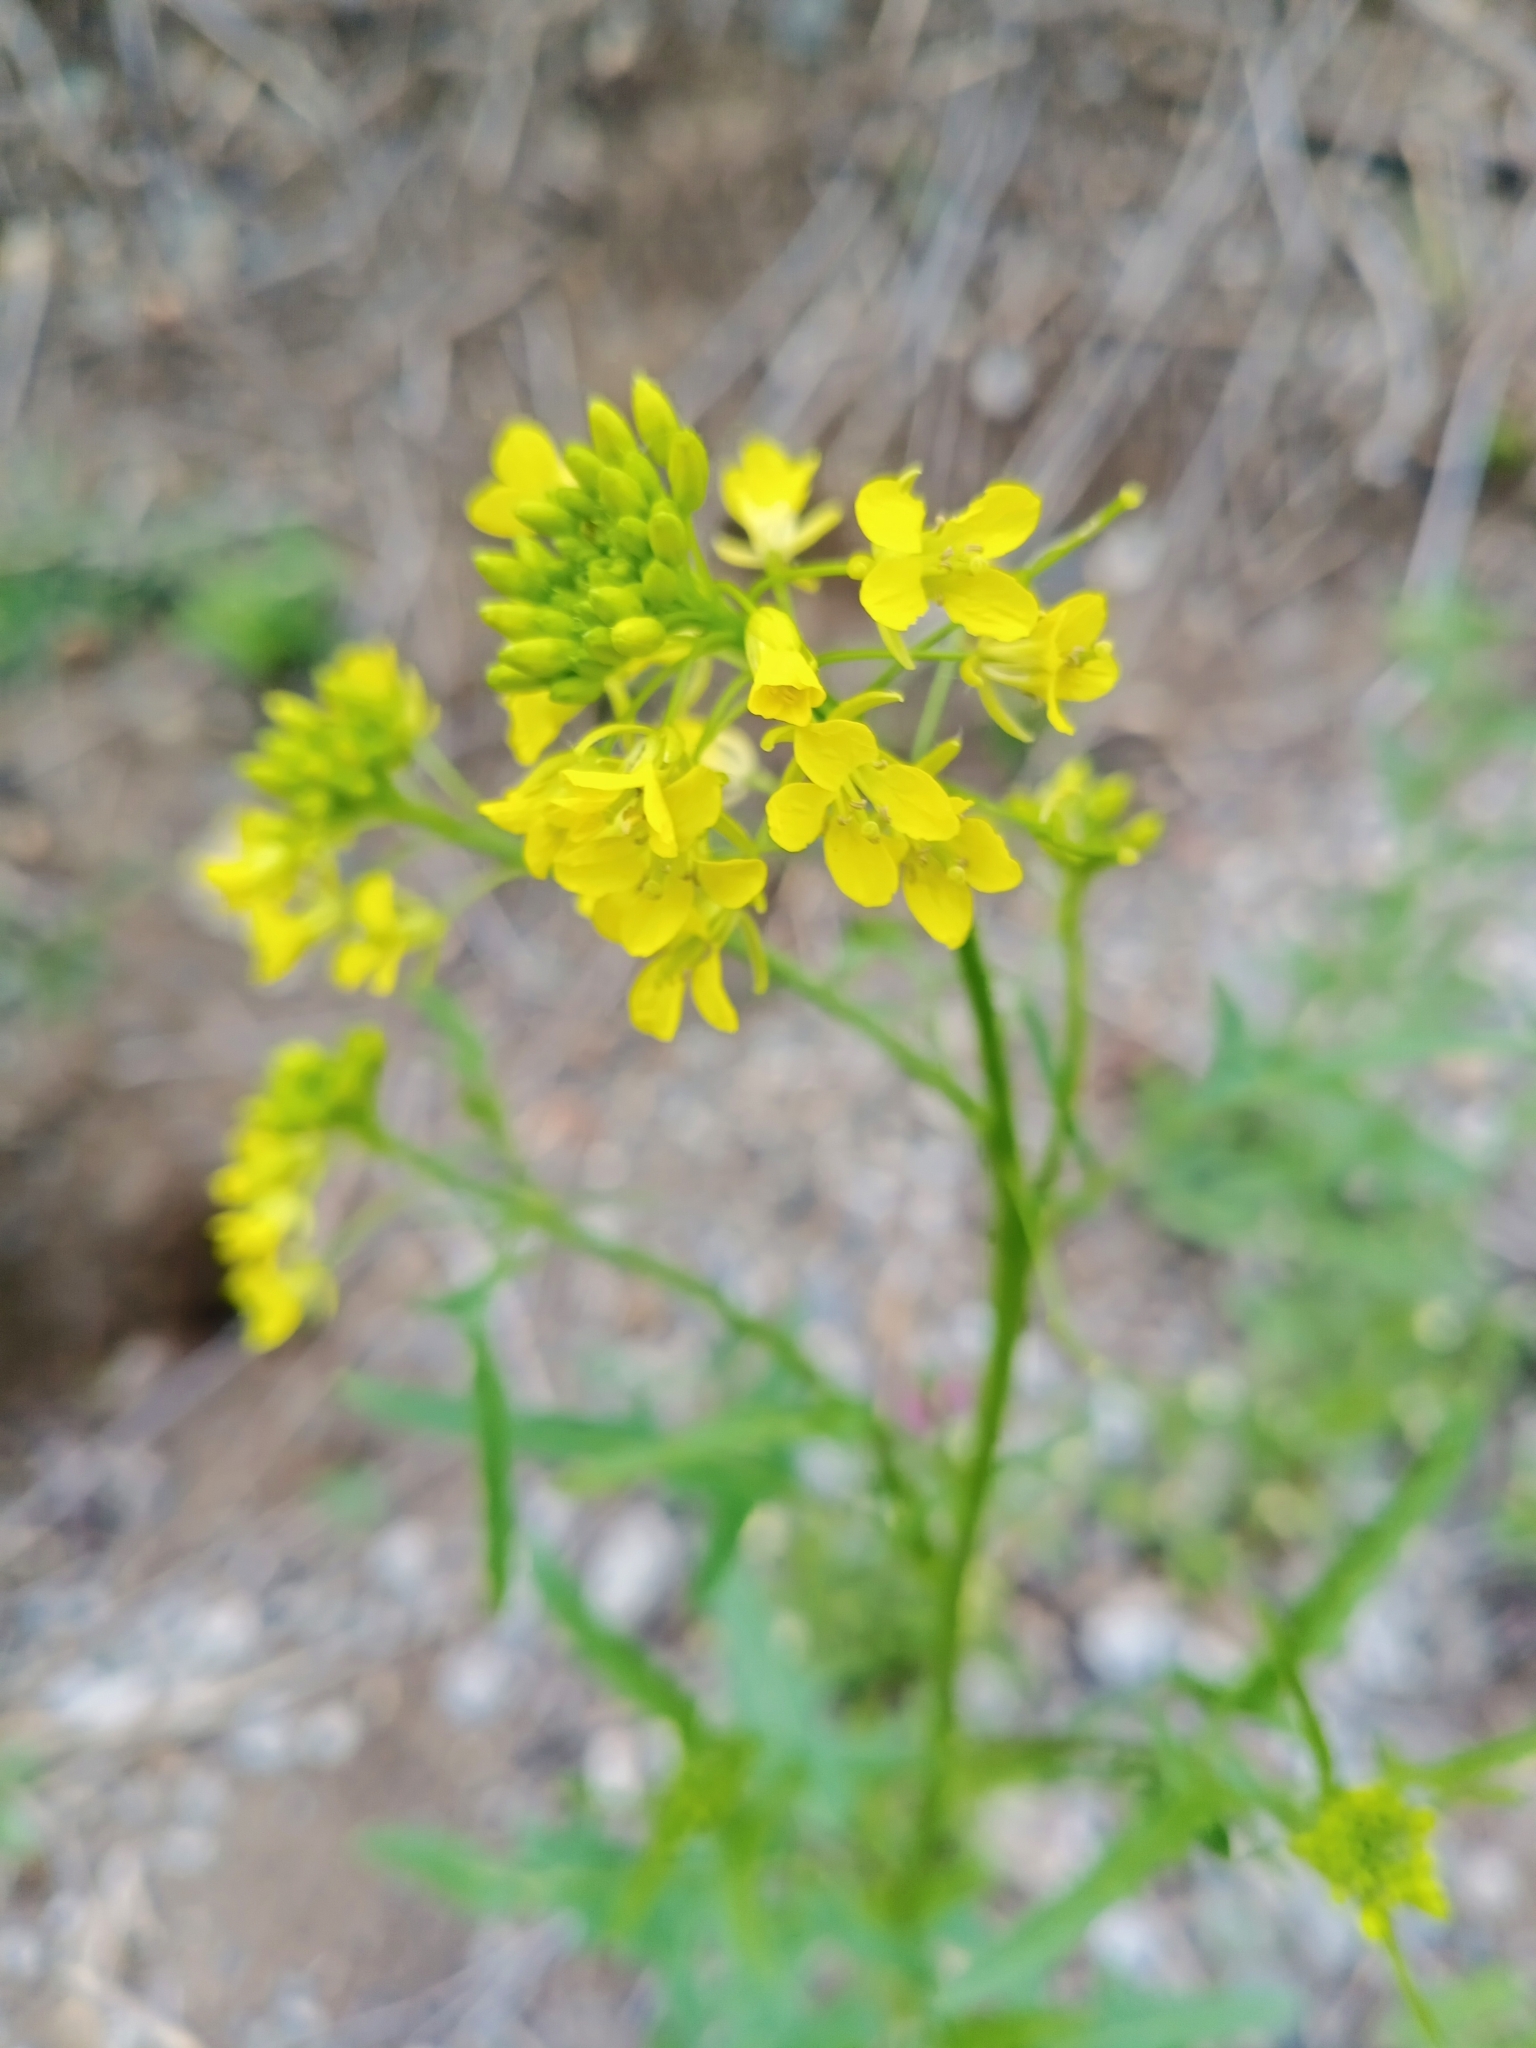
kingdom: Plantae
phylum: Tracheophyta
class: Magnoliopsida
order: Brassicales
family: Brassicaceae
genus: Sisymbrium
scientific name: Sisymbrium loeselii
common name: False london-rocket
